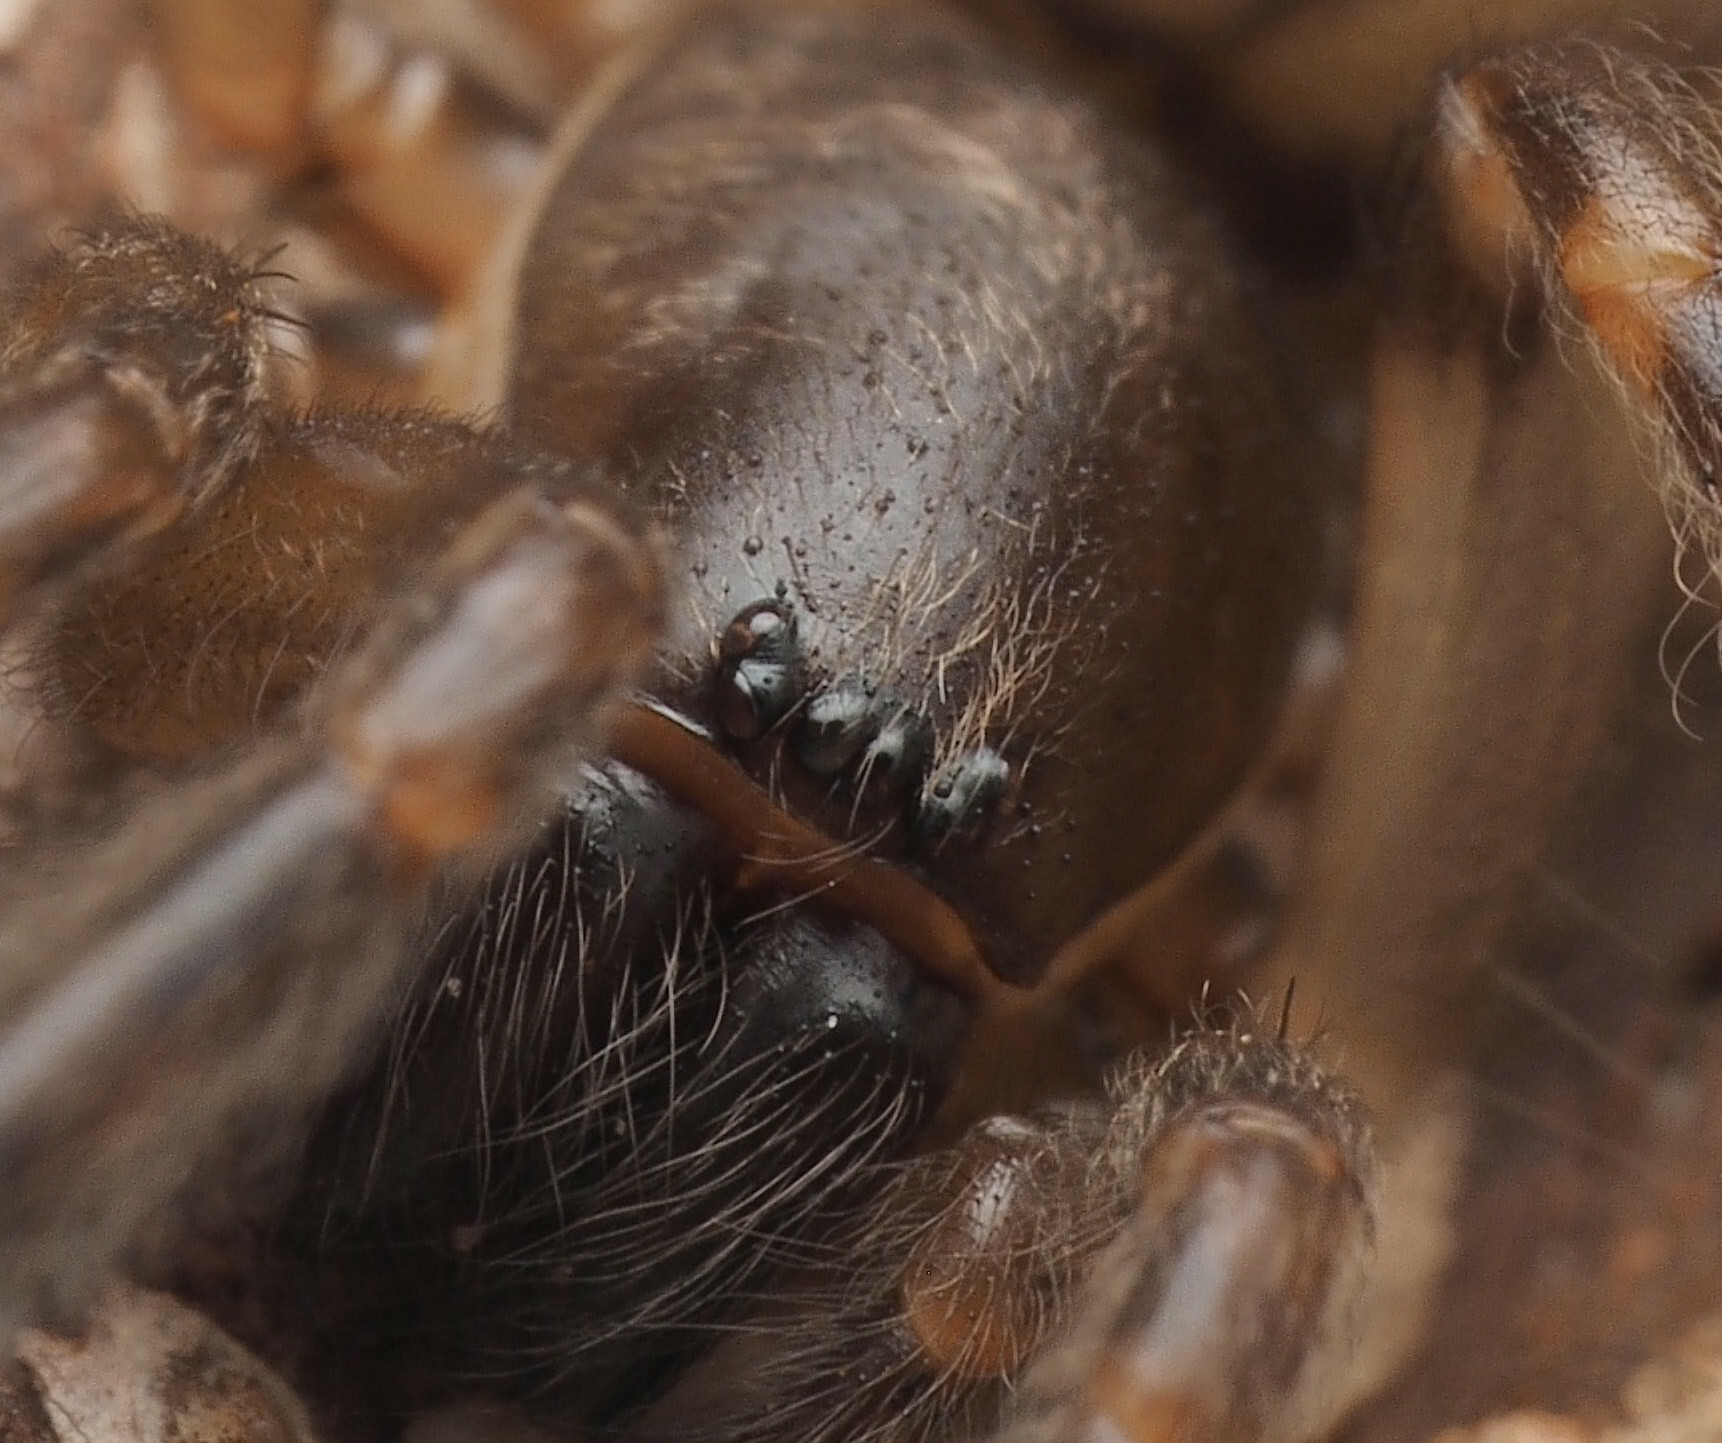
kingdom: Animalia
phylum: Arthropoda
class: Arachnida
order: Araneae
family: Segestriidae
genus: Gippsicola
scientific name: Gippsicola robusta
